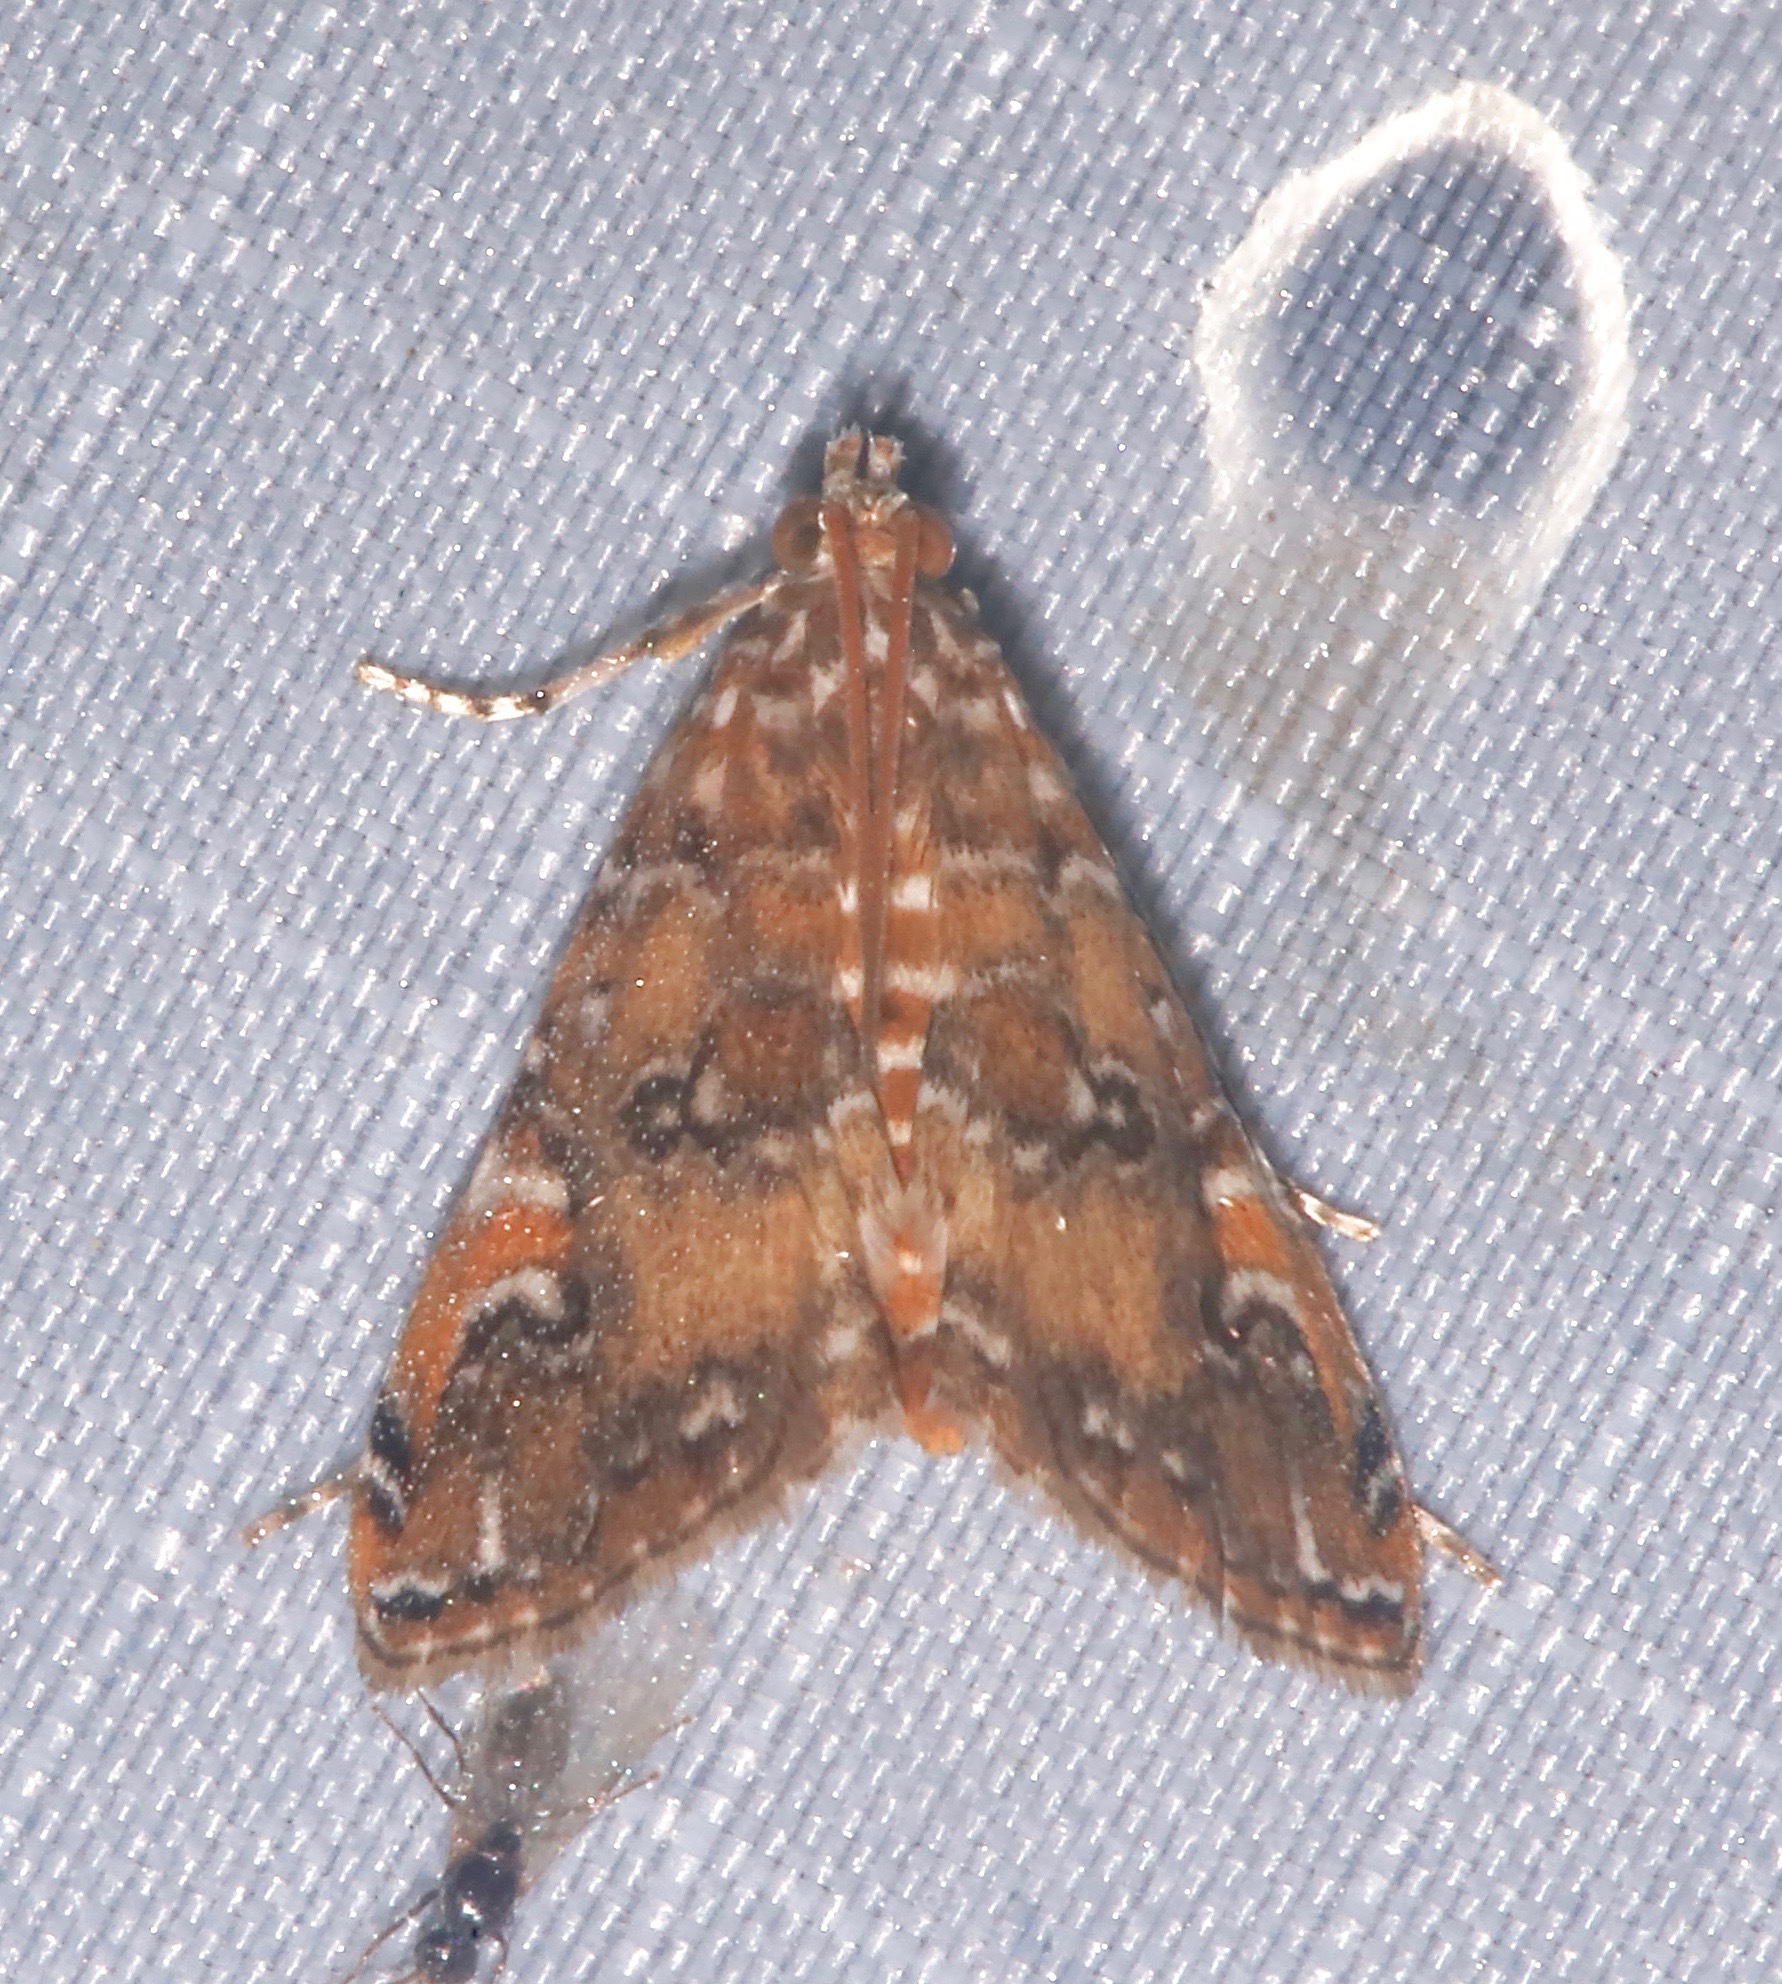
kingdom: Animalia
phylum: Arthropoda
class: Insecta
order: Lepidoptera
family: Crambidae
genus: Elophila
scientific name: Elophila gyralis
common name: Waterlily borer moth
